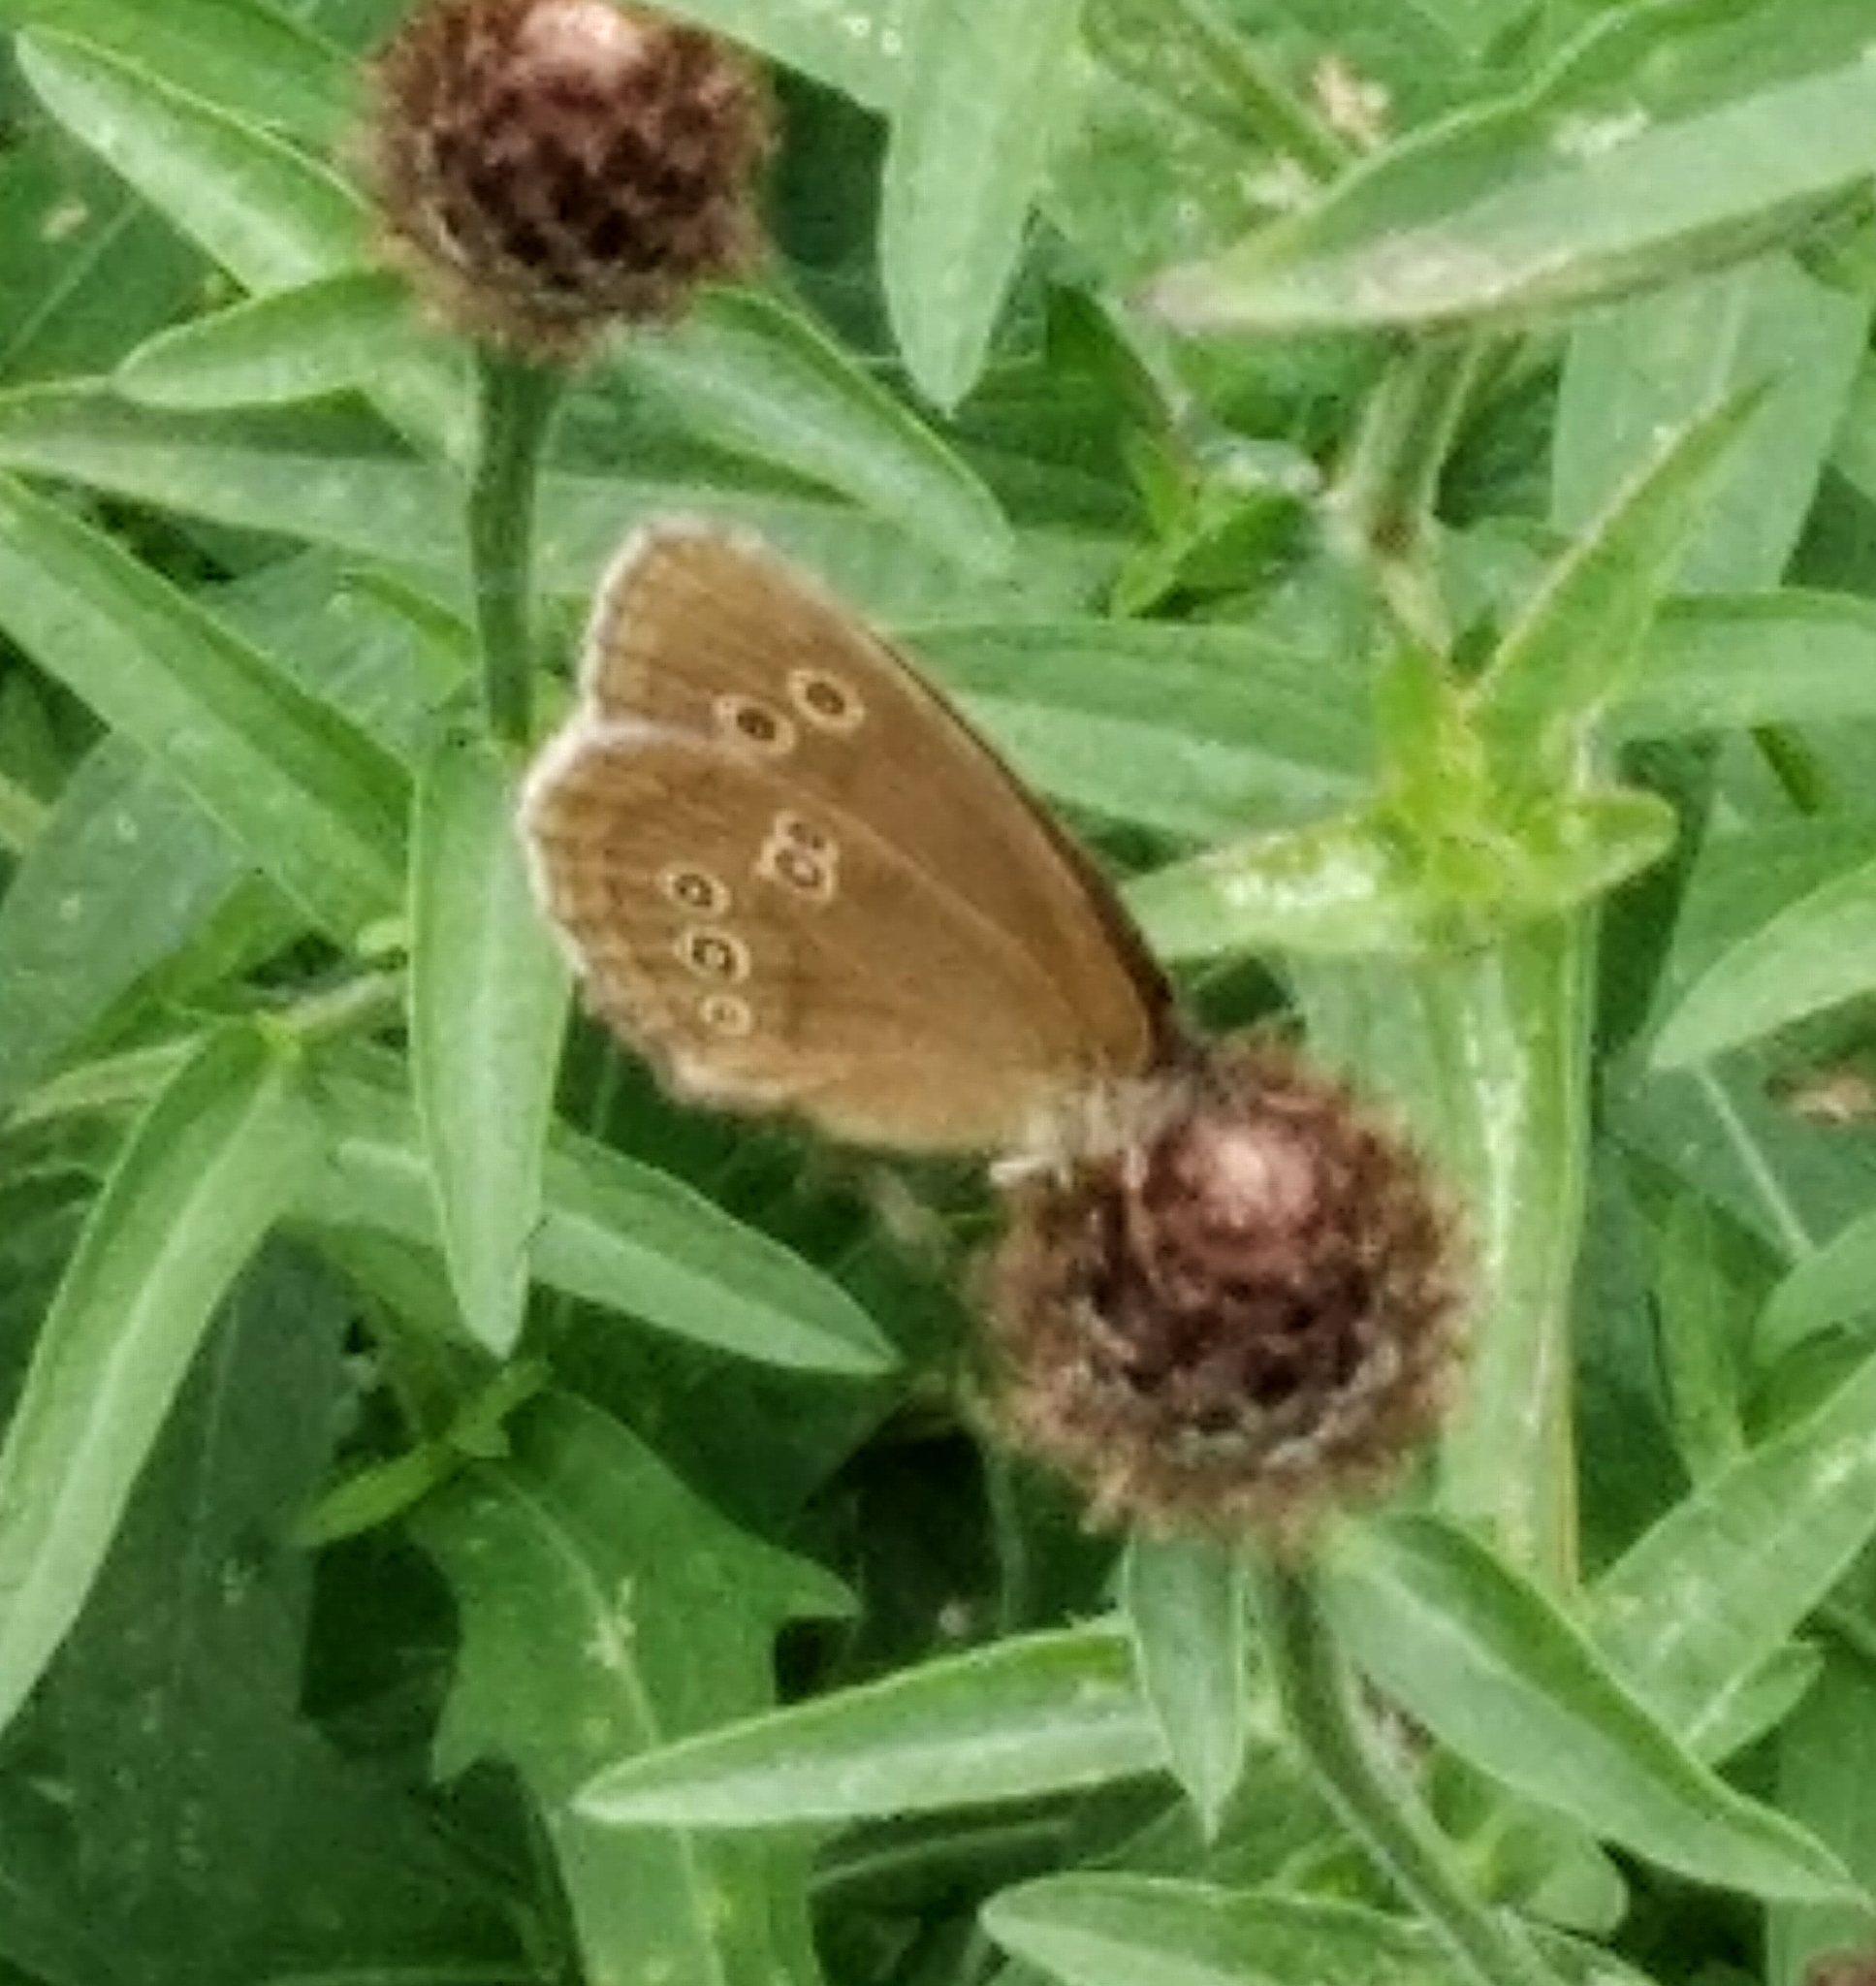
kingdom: Animalia
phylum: Arthropoda
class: Insecta
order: Lepidoptera
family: Nymphalidae
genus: Aphantopus
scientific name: Aphantopus hyperantus
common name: Ringlet
